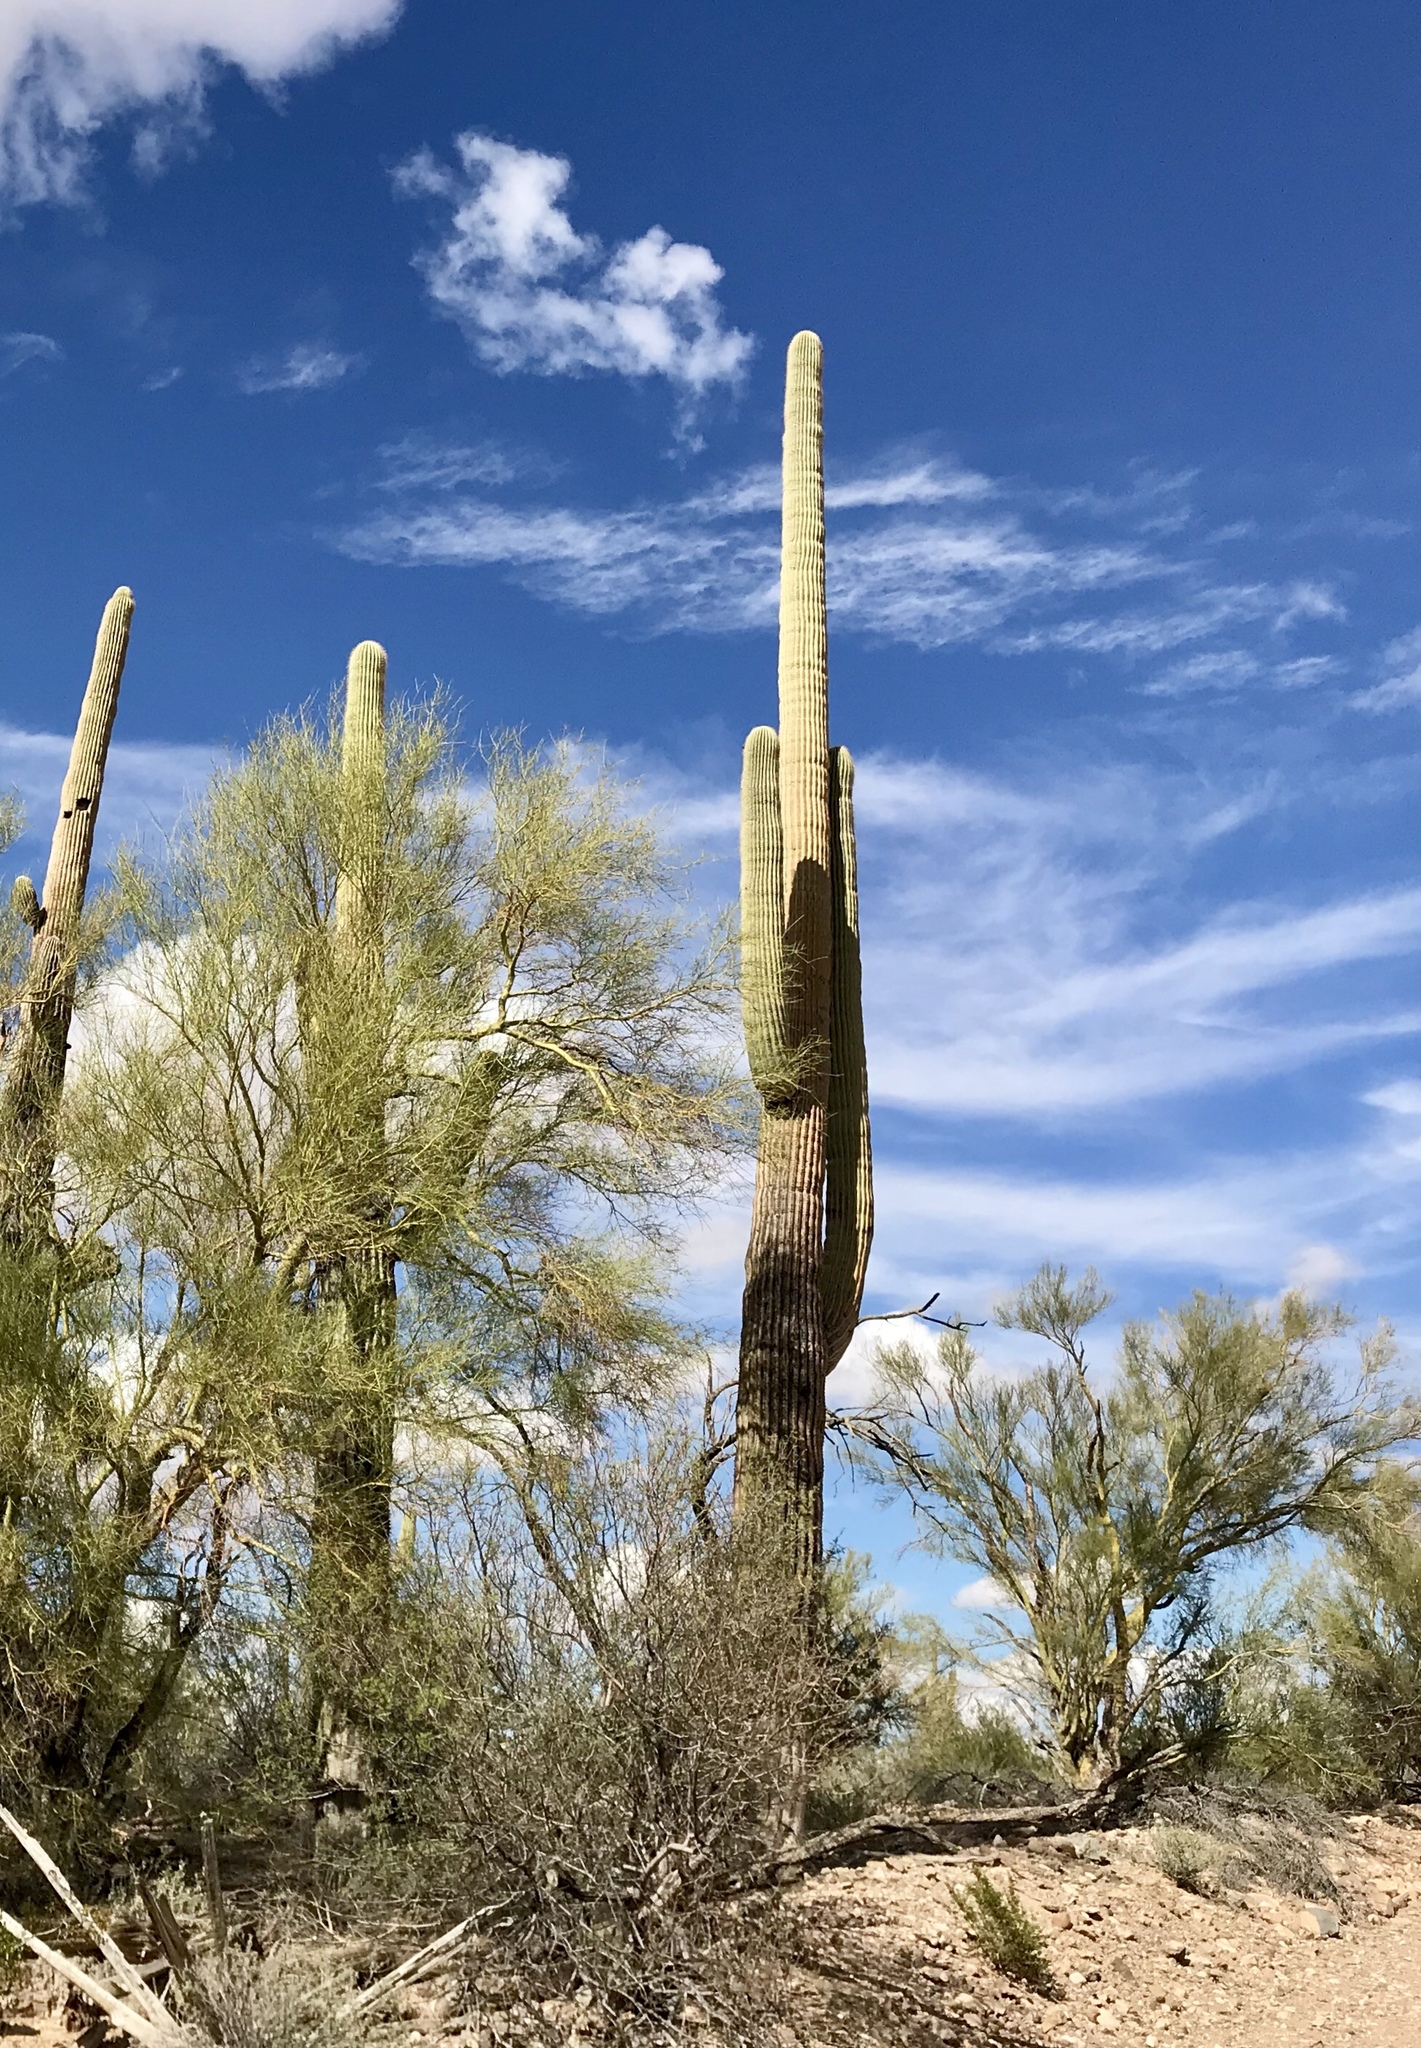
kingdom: Plantae
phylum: Tracheophyta
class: Magnoliopsida
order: Caryophyllales
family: Cactaceae
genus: Carnegiea
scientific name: Carnegiea gigantea
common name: Saguaro
